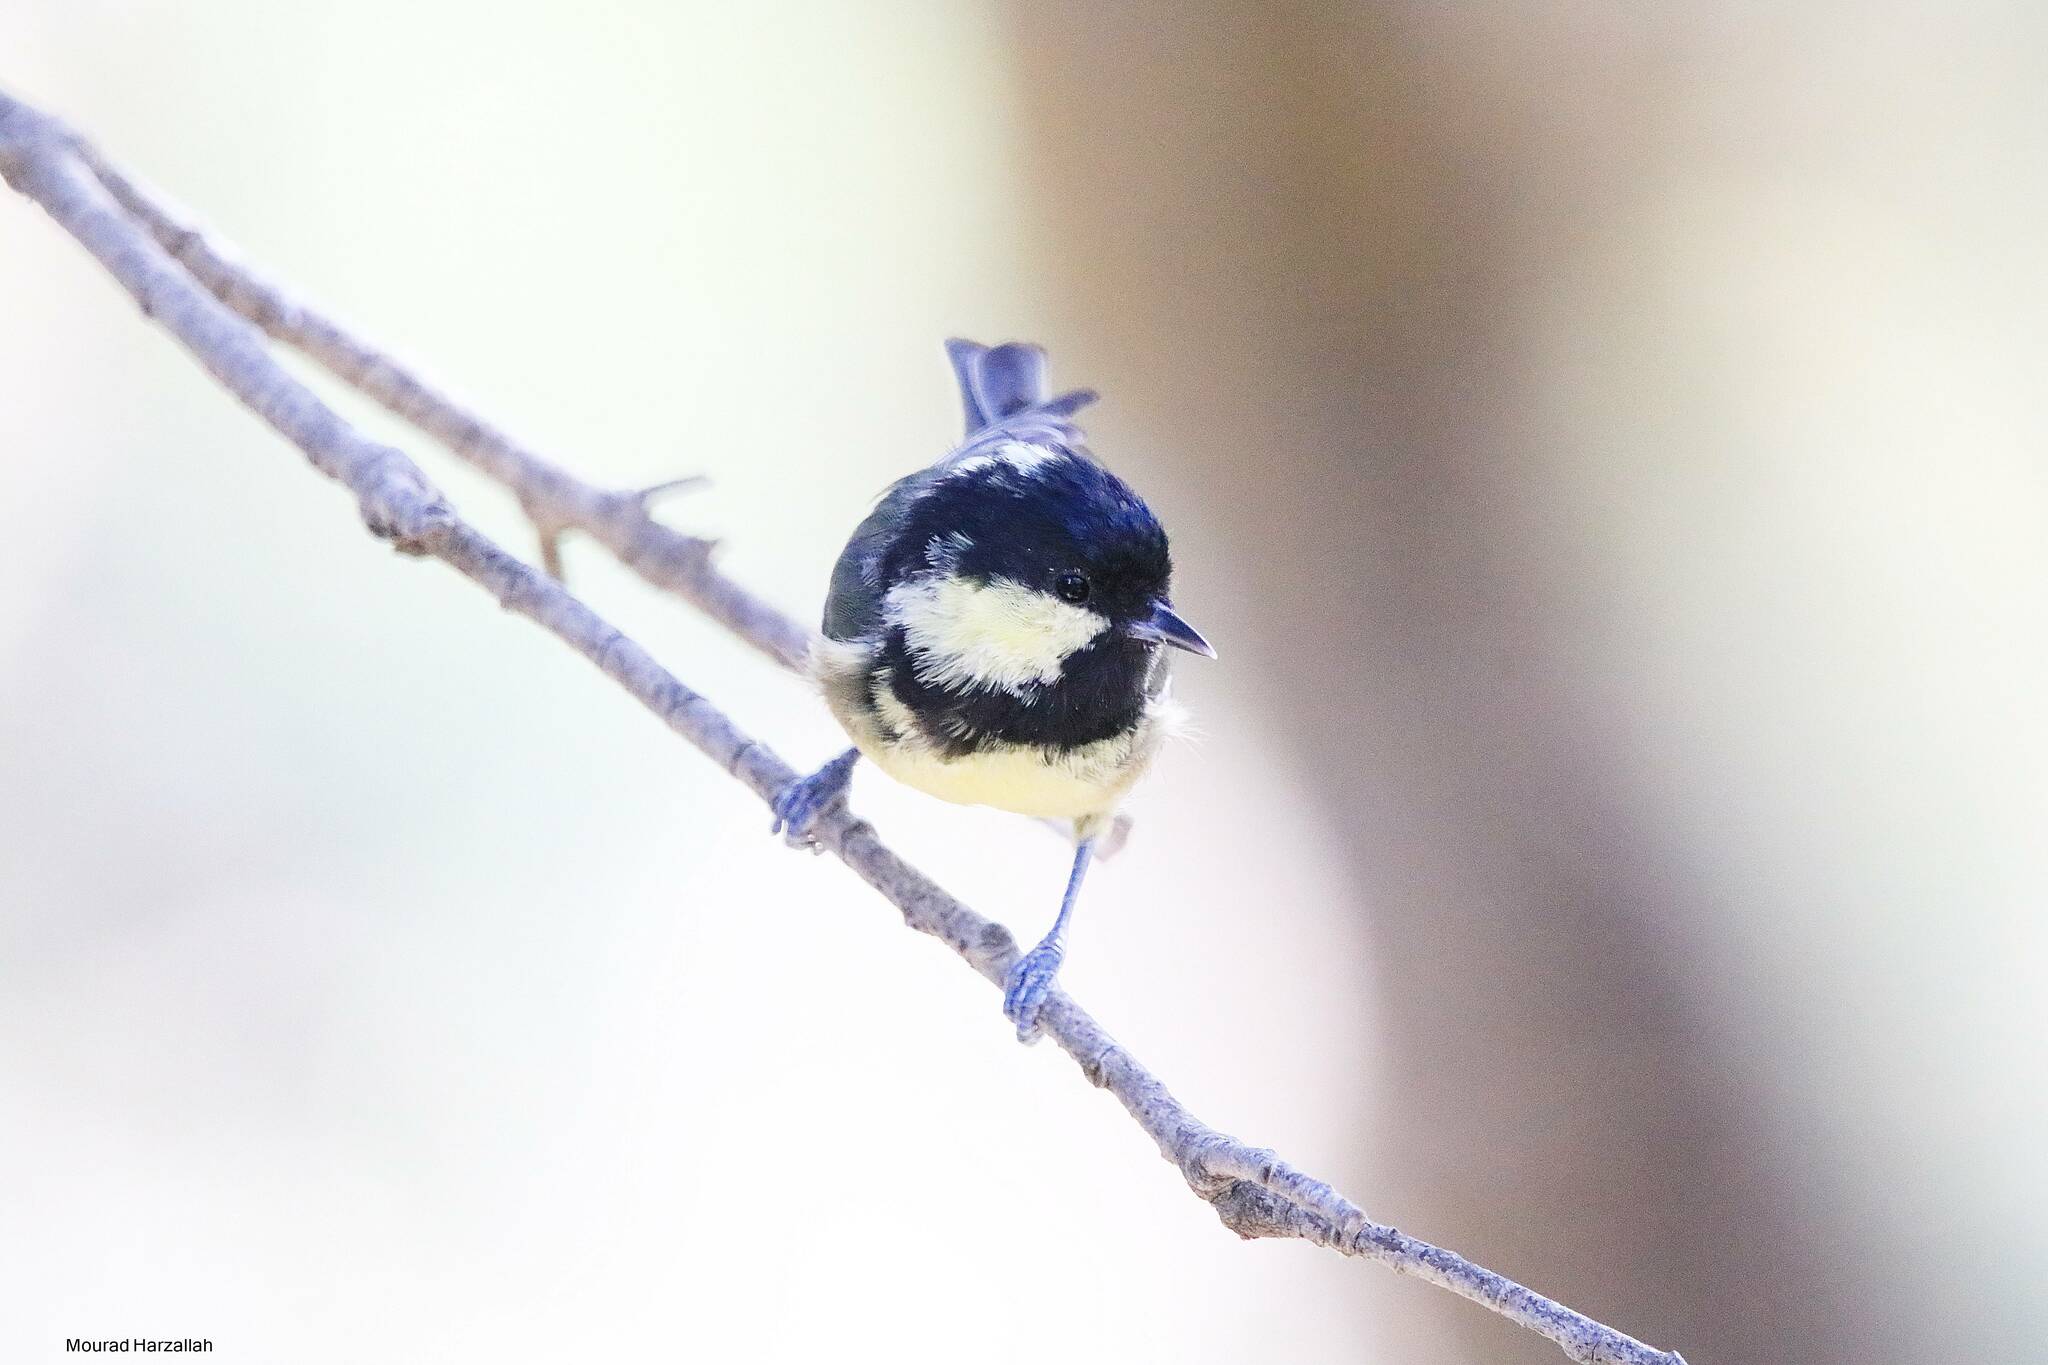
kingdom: Animalia
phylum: Chordata
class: Aves
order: Passeriformes
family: Paridae
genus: Periparus
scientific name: Periparus ater
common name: Coal tit
